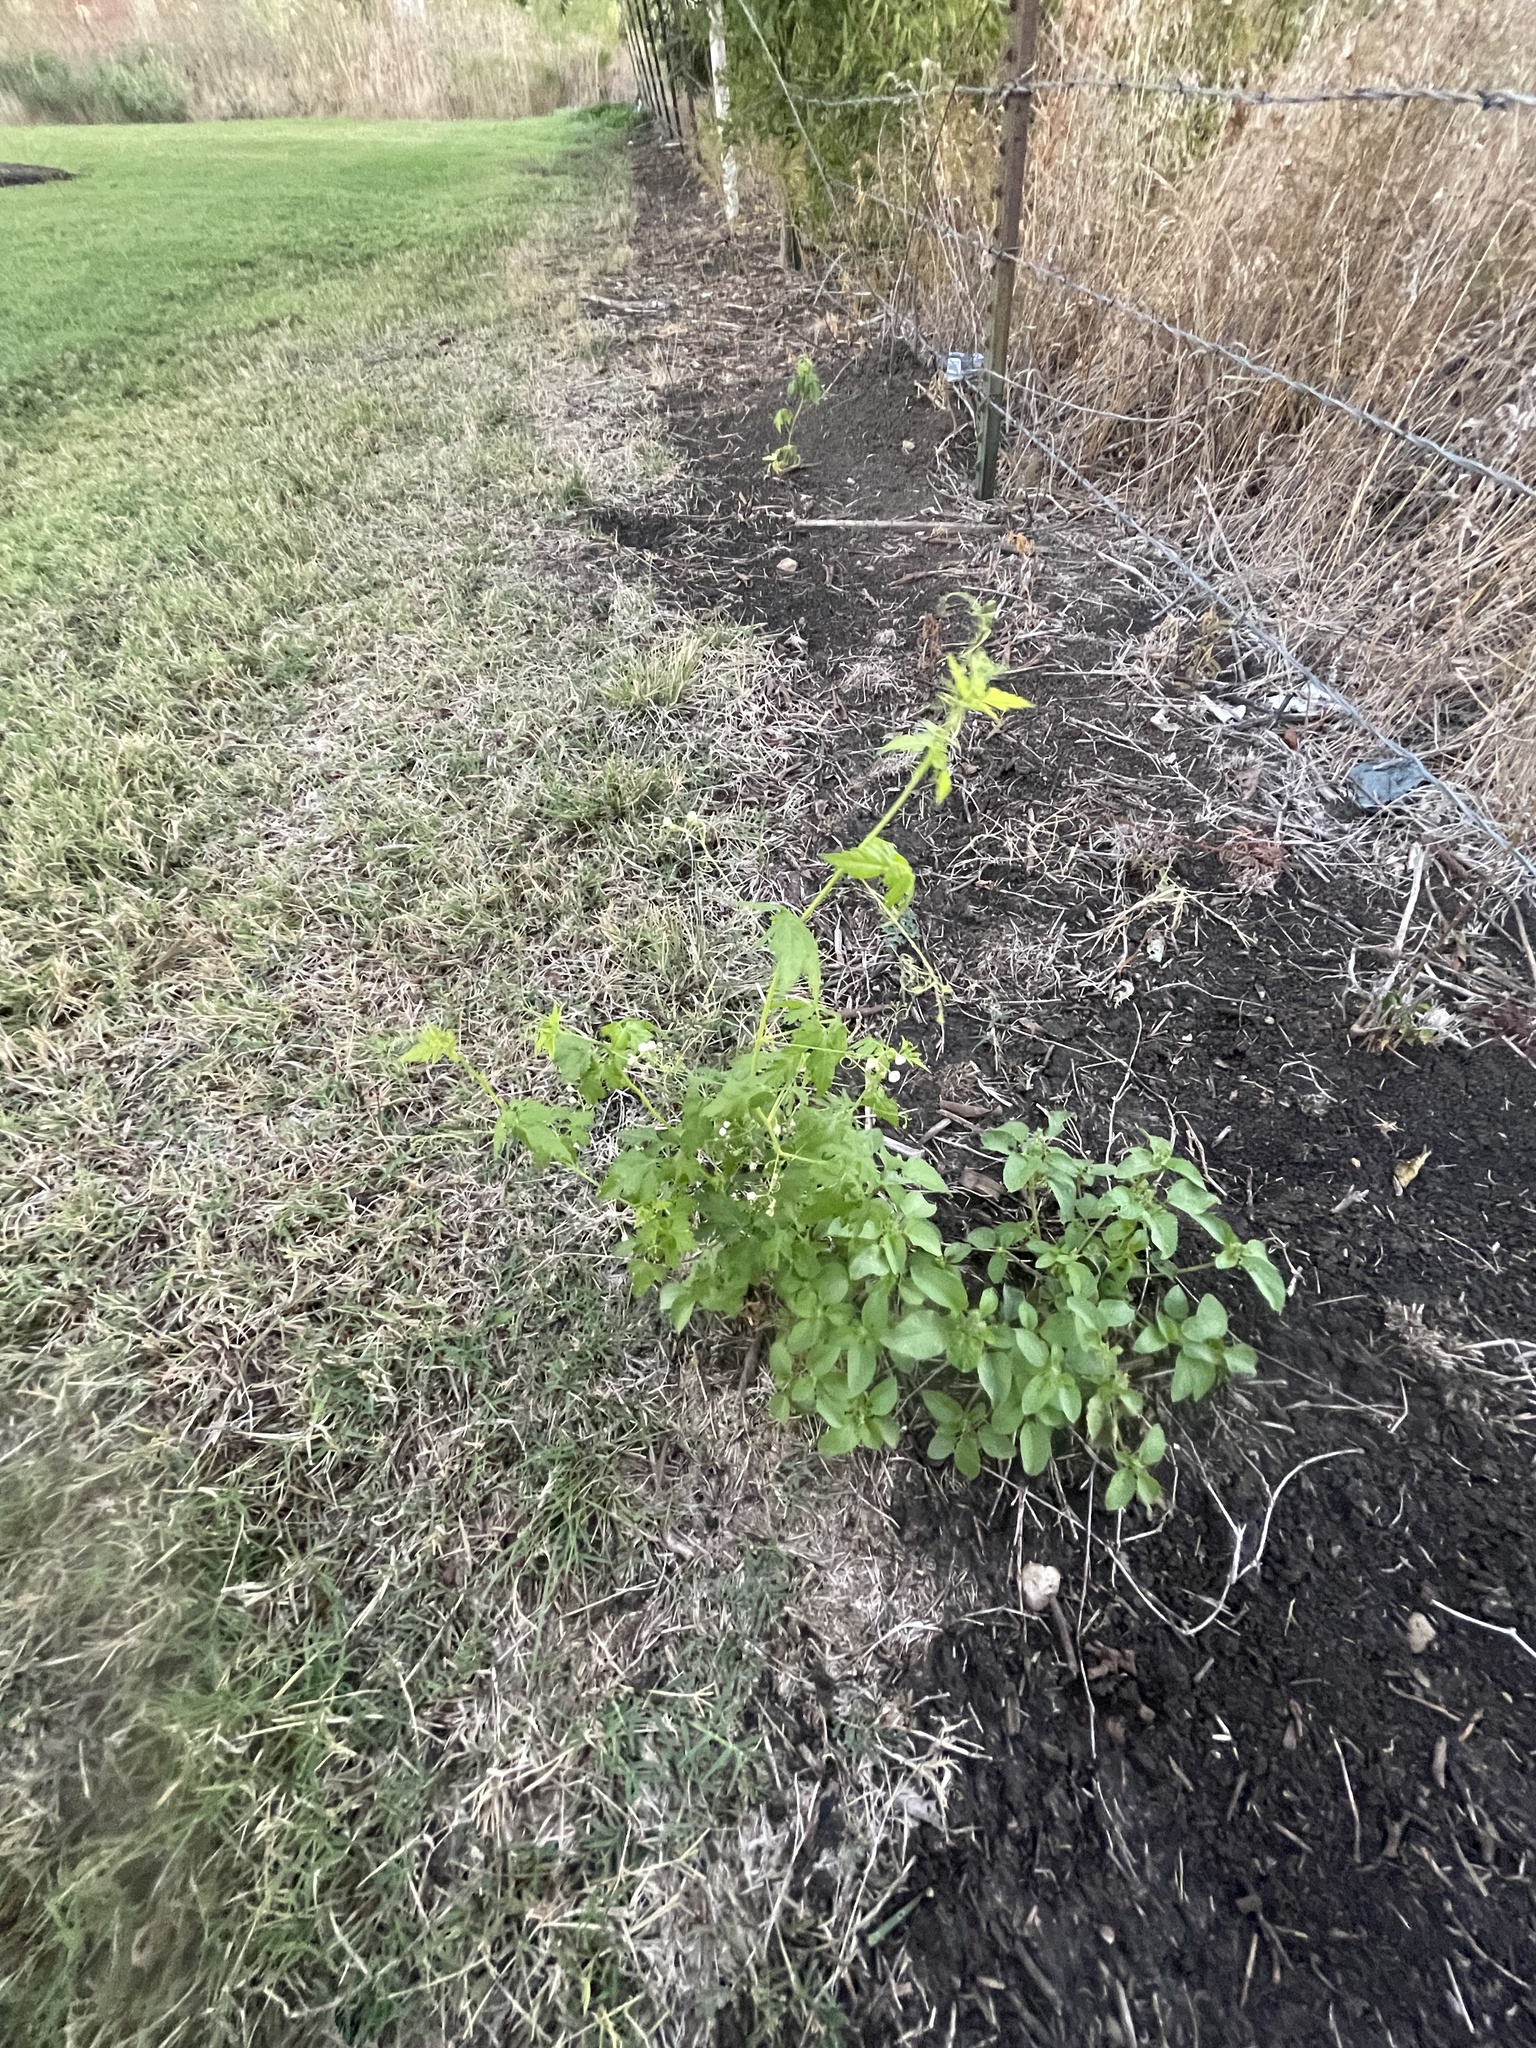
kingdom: Plantae
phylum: Tracheophyta
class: Magnoliopsida
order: Sapindales
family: Sapindaceae
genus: Cardiospermum
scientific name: Cardiospermum halicacabum
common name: Balloon vine
